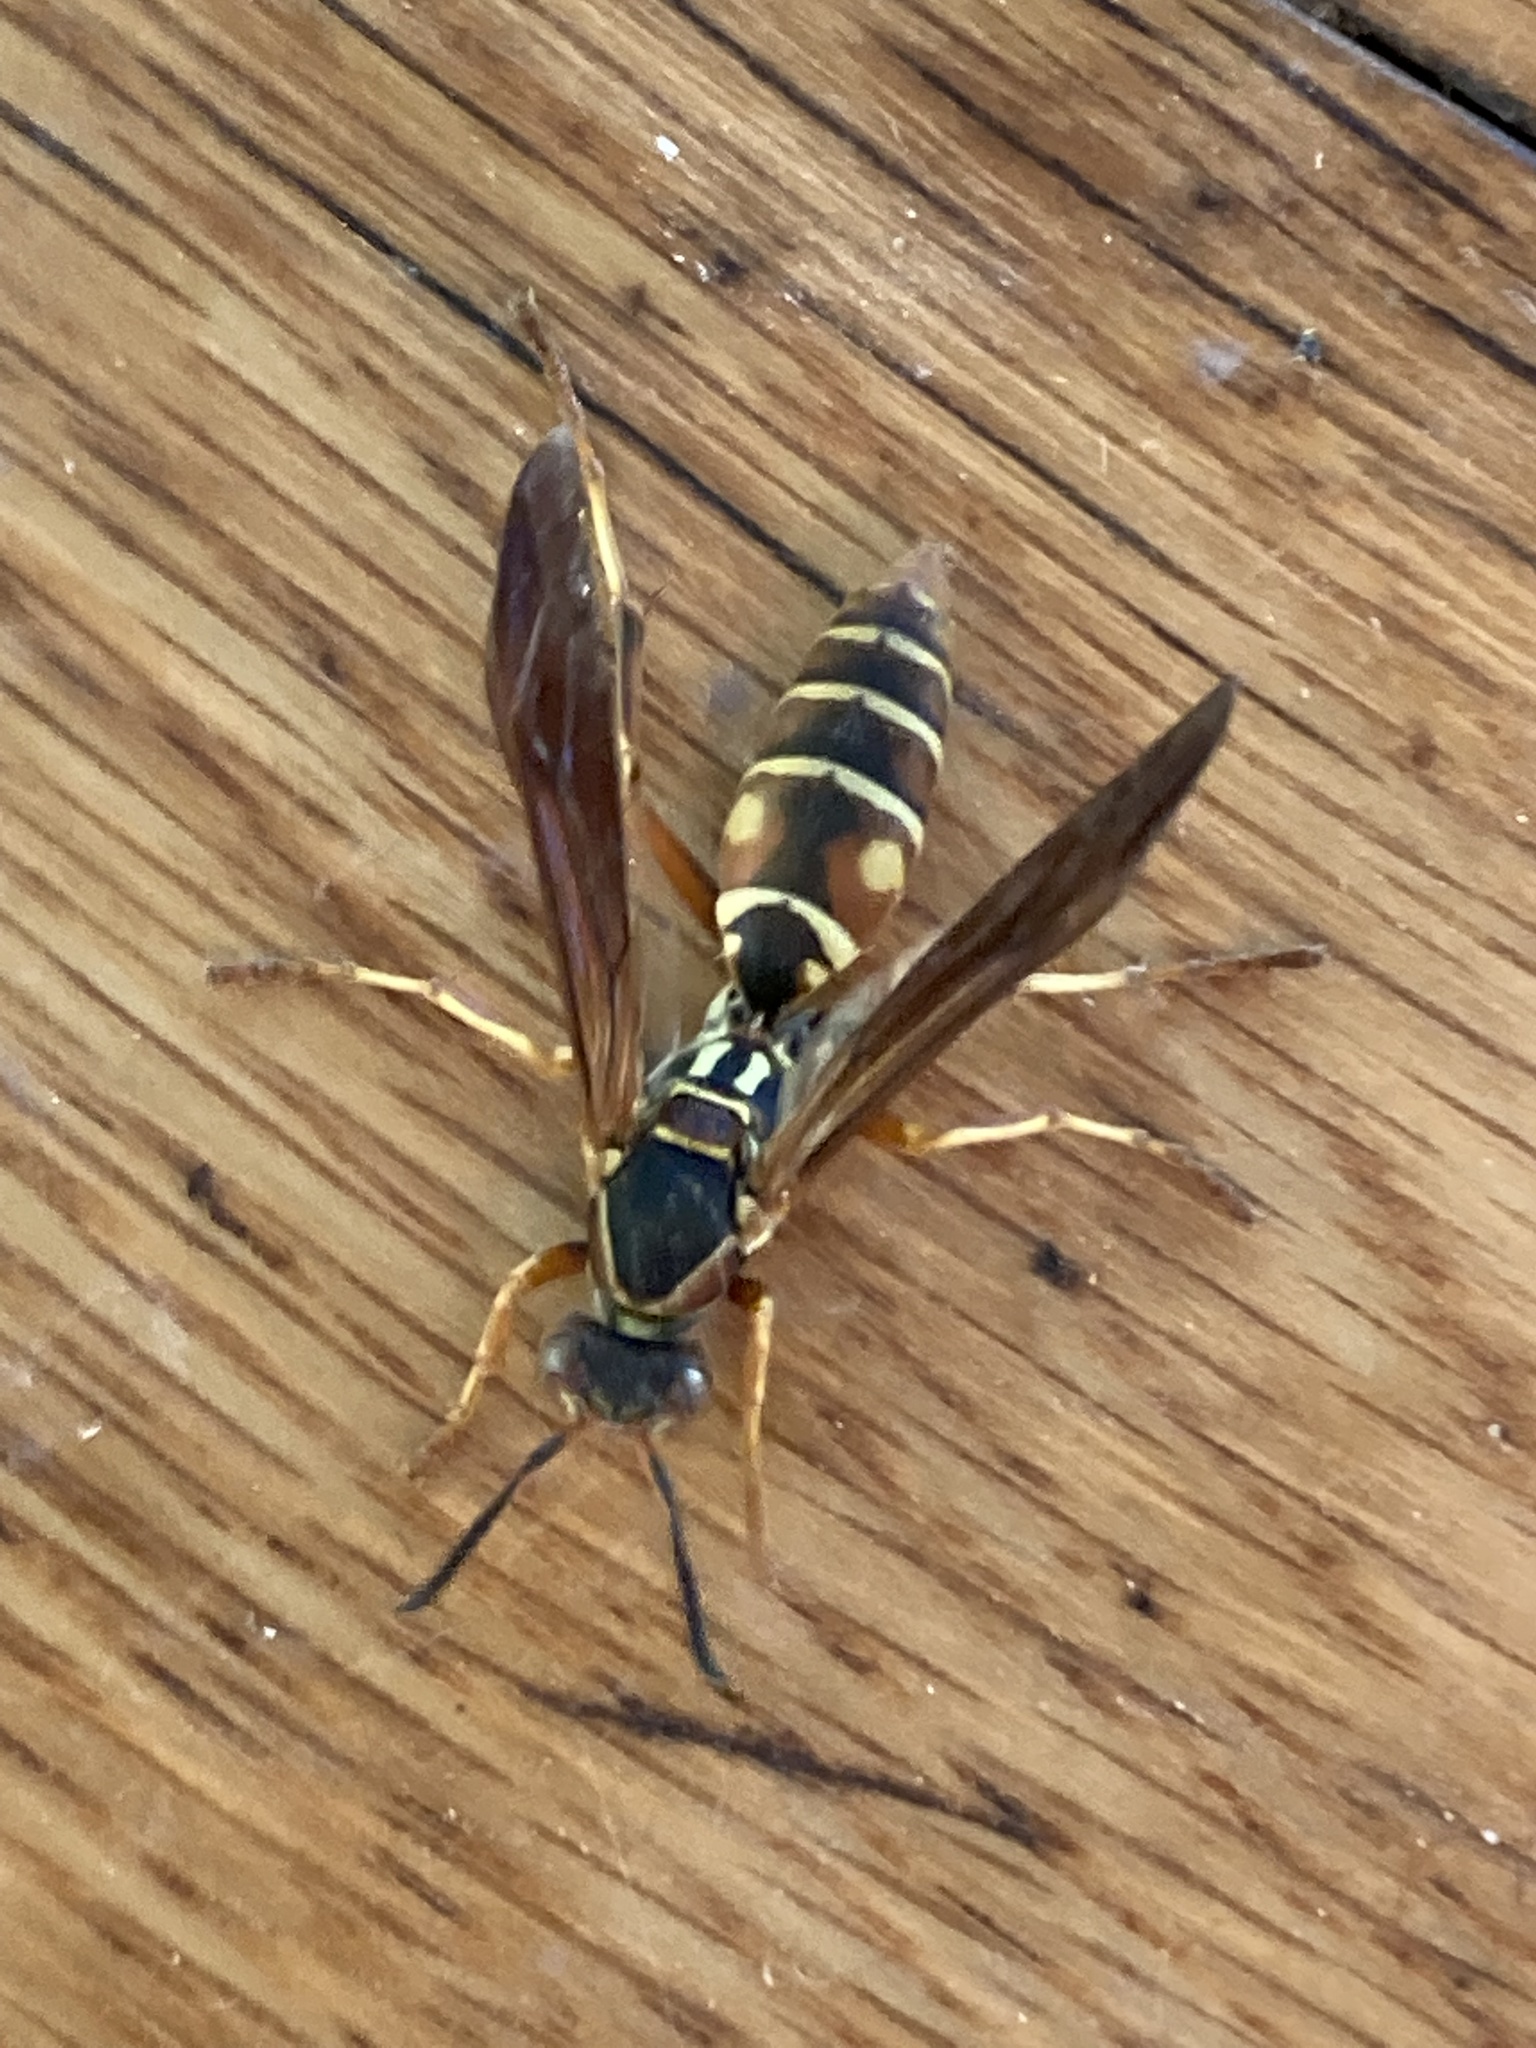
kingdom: Animalia
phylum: Arthropoda
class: Insecta
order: Hymenoptera
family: Eumenidae
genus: Polistes
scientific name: Polistes fuscatus
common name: Dark paper wasp
